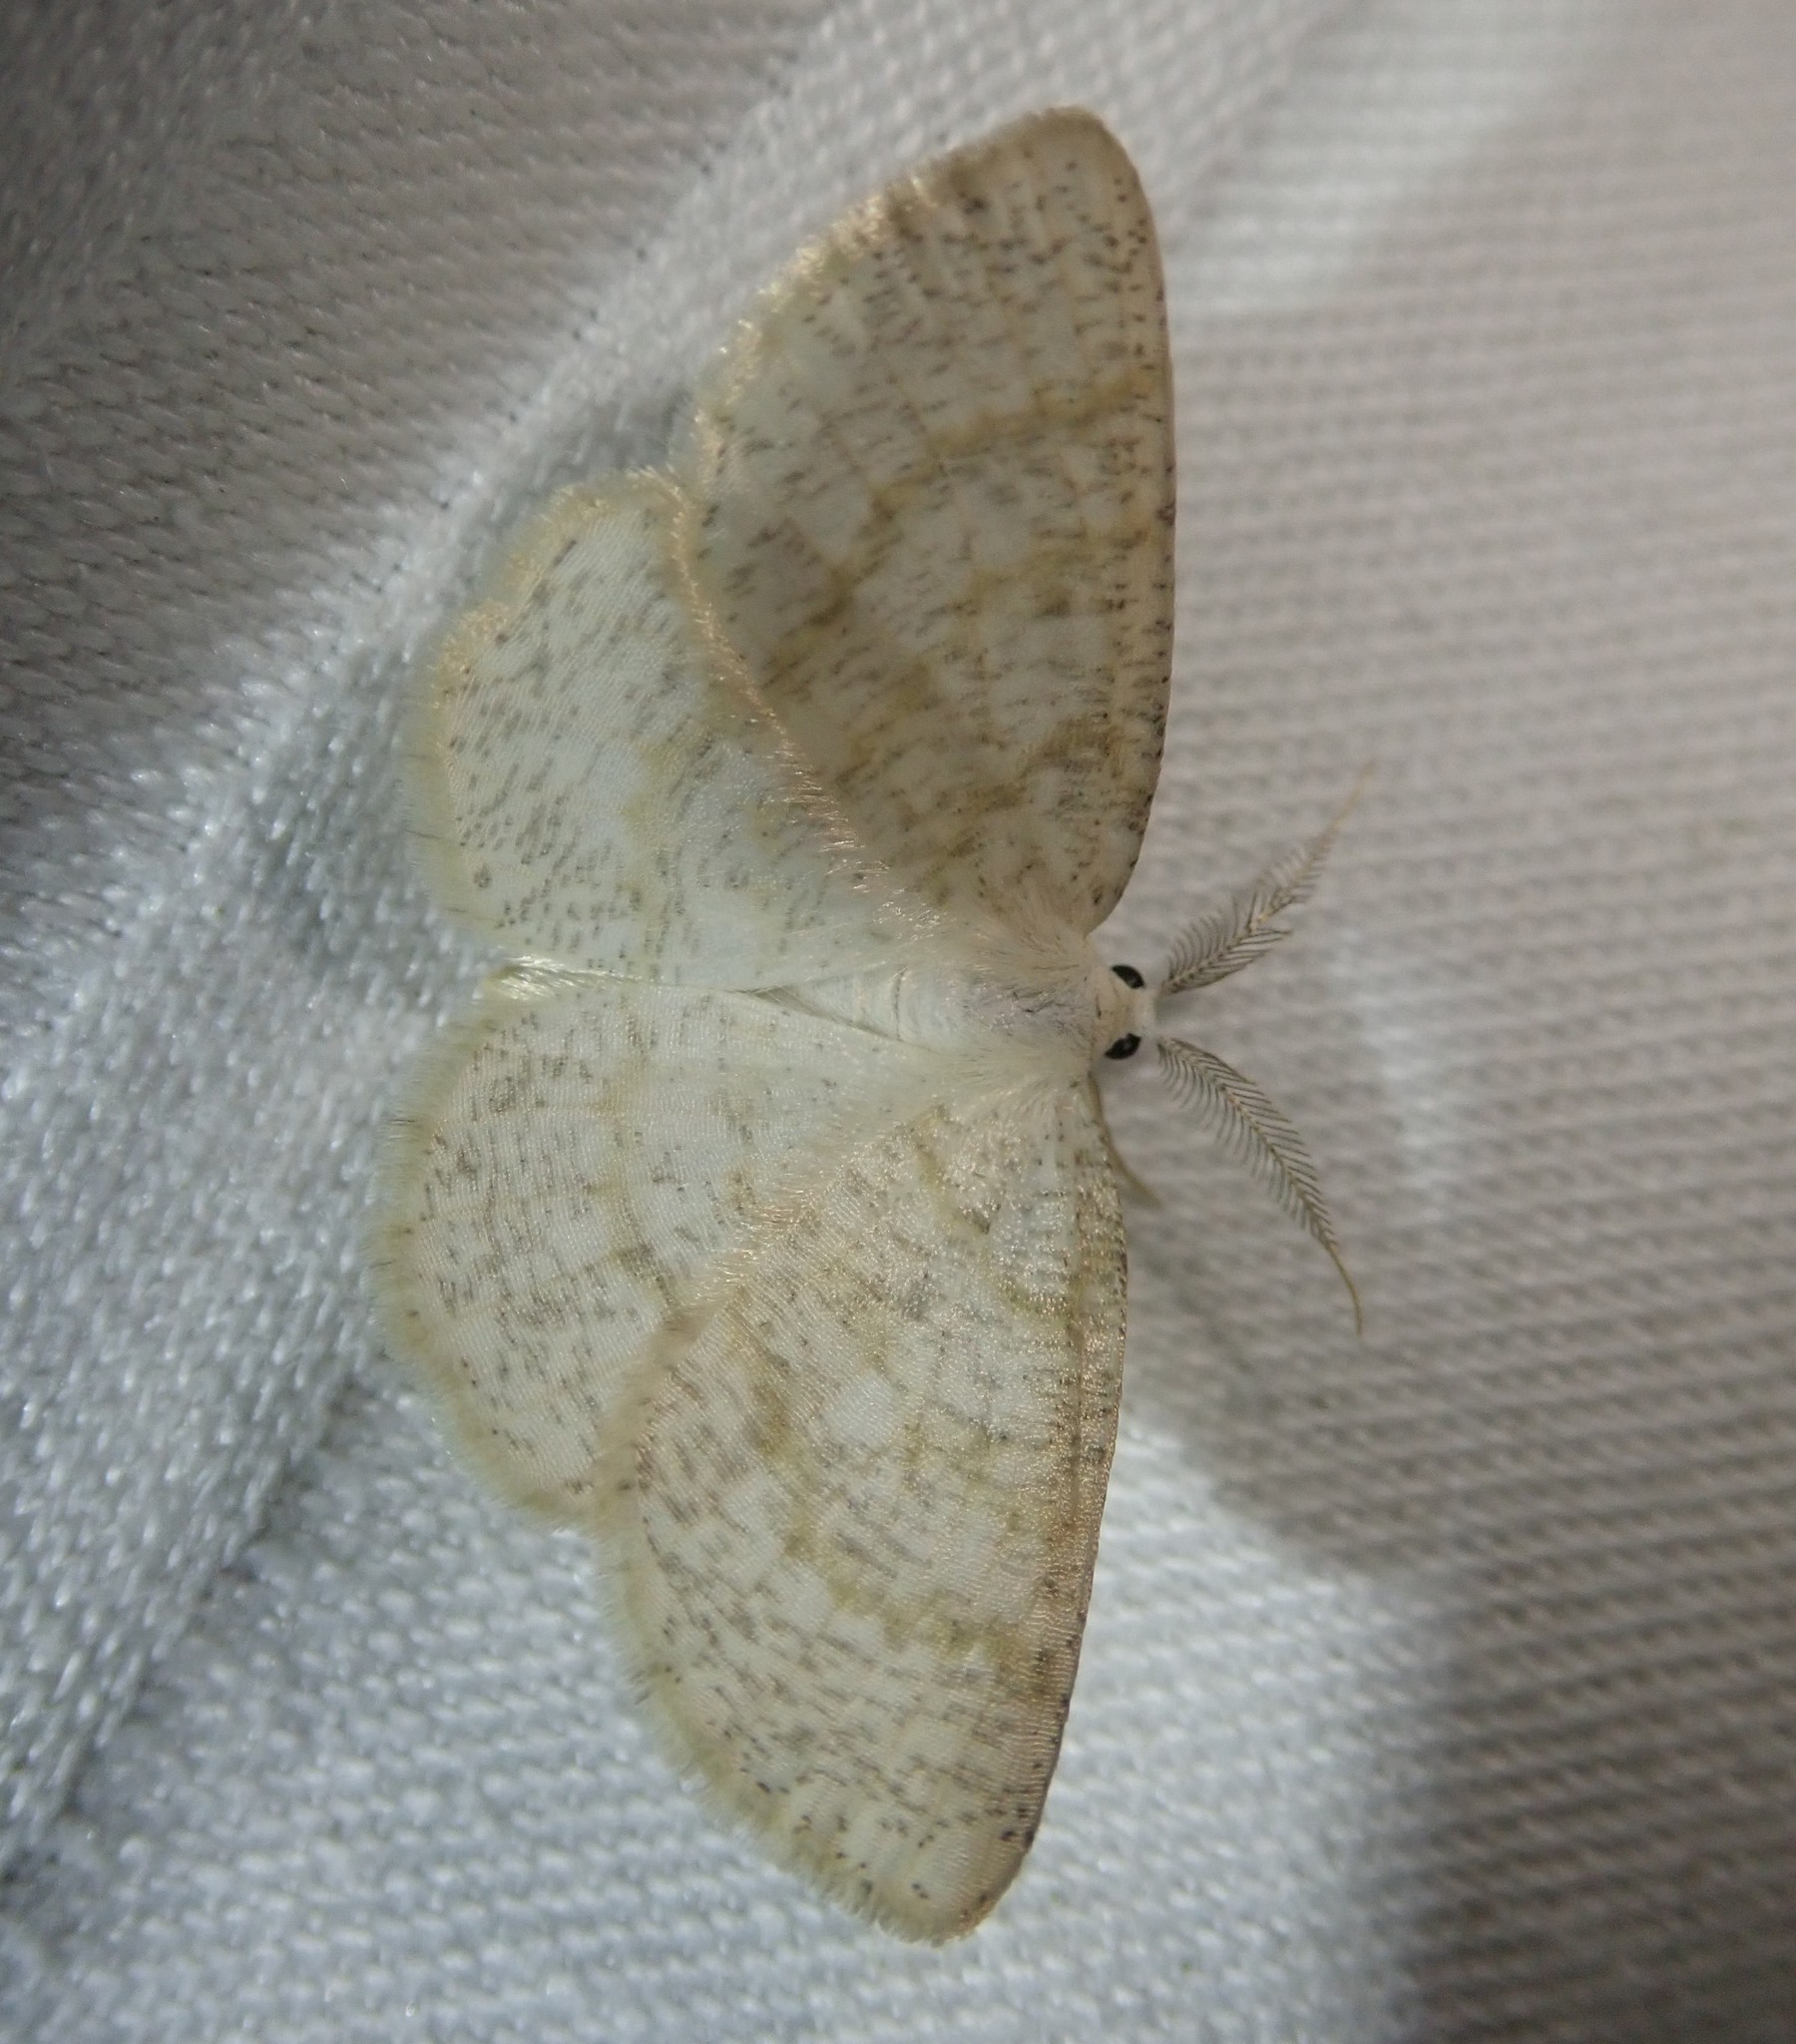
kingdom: Animalia
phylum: Arthropoda
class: Insecta
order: Lepidoptera
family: Geometridae
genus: Cabera
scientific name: Cabera exanthemata
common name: Common wave
